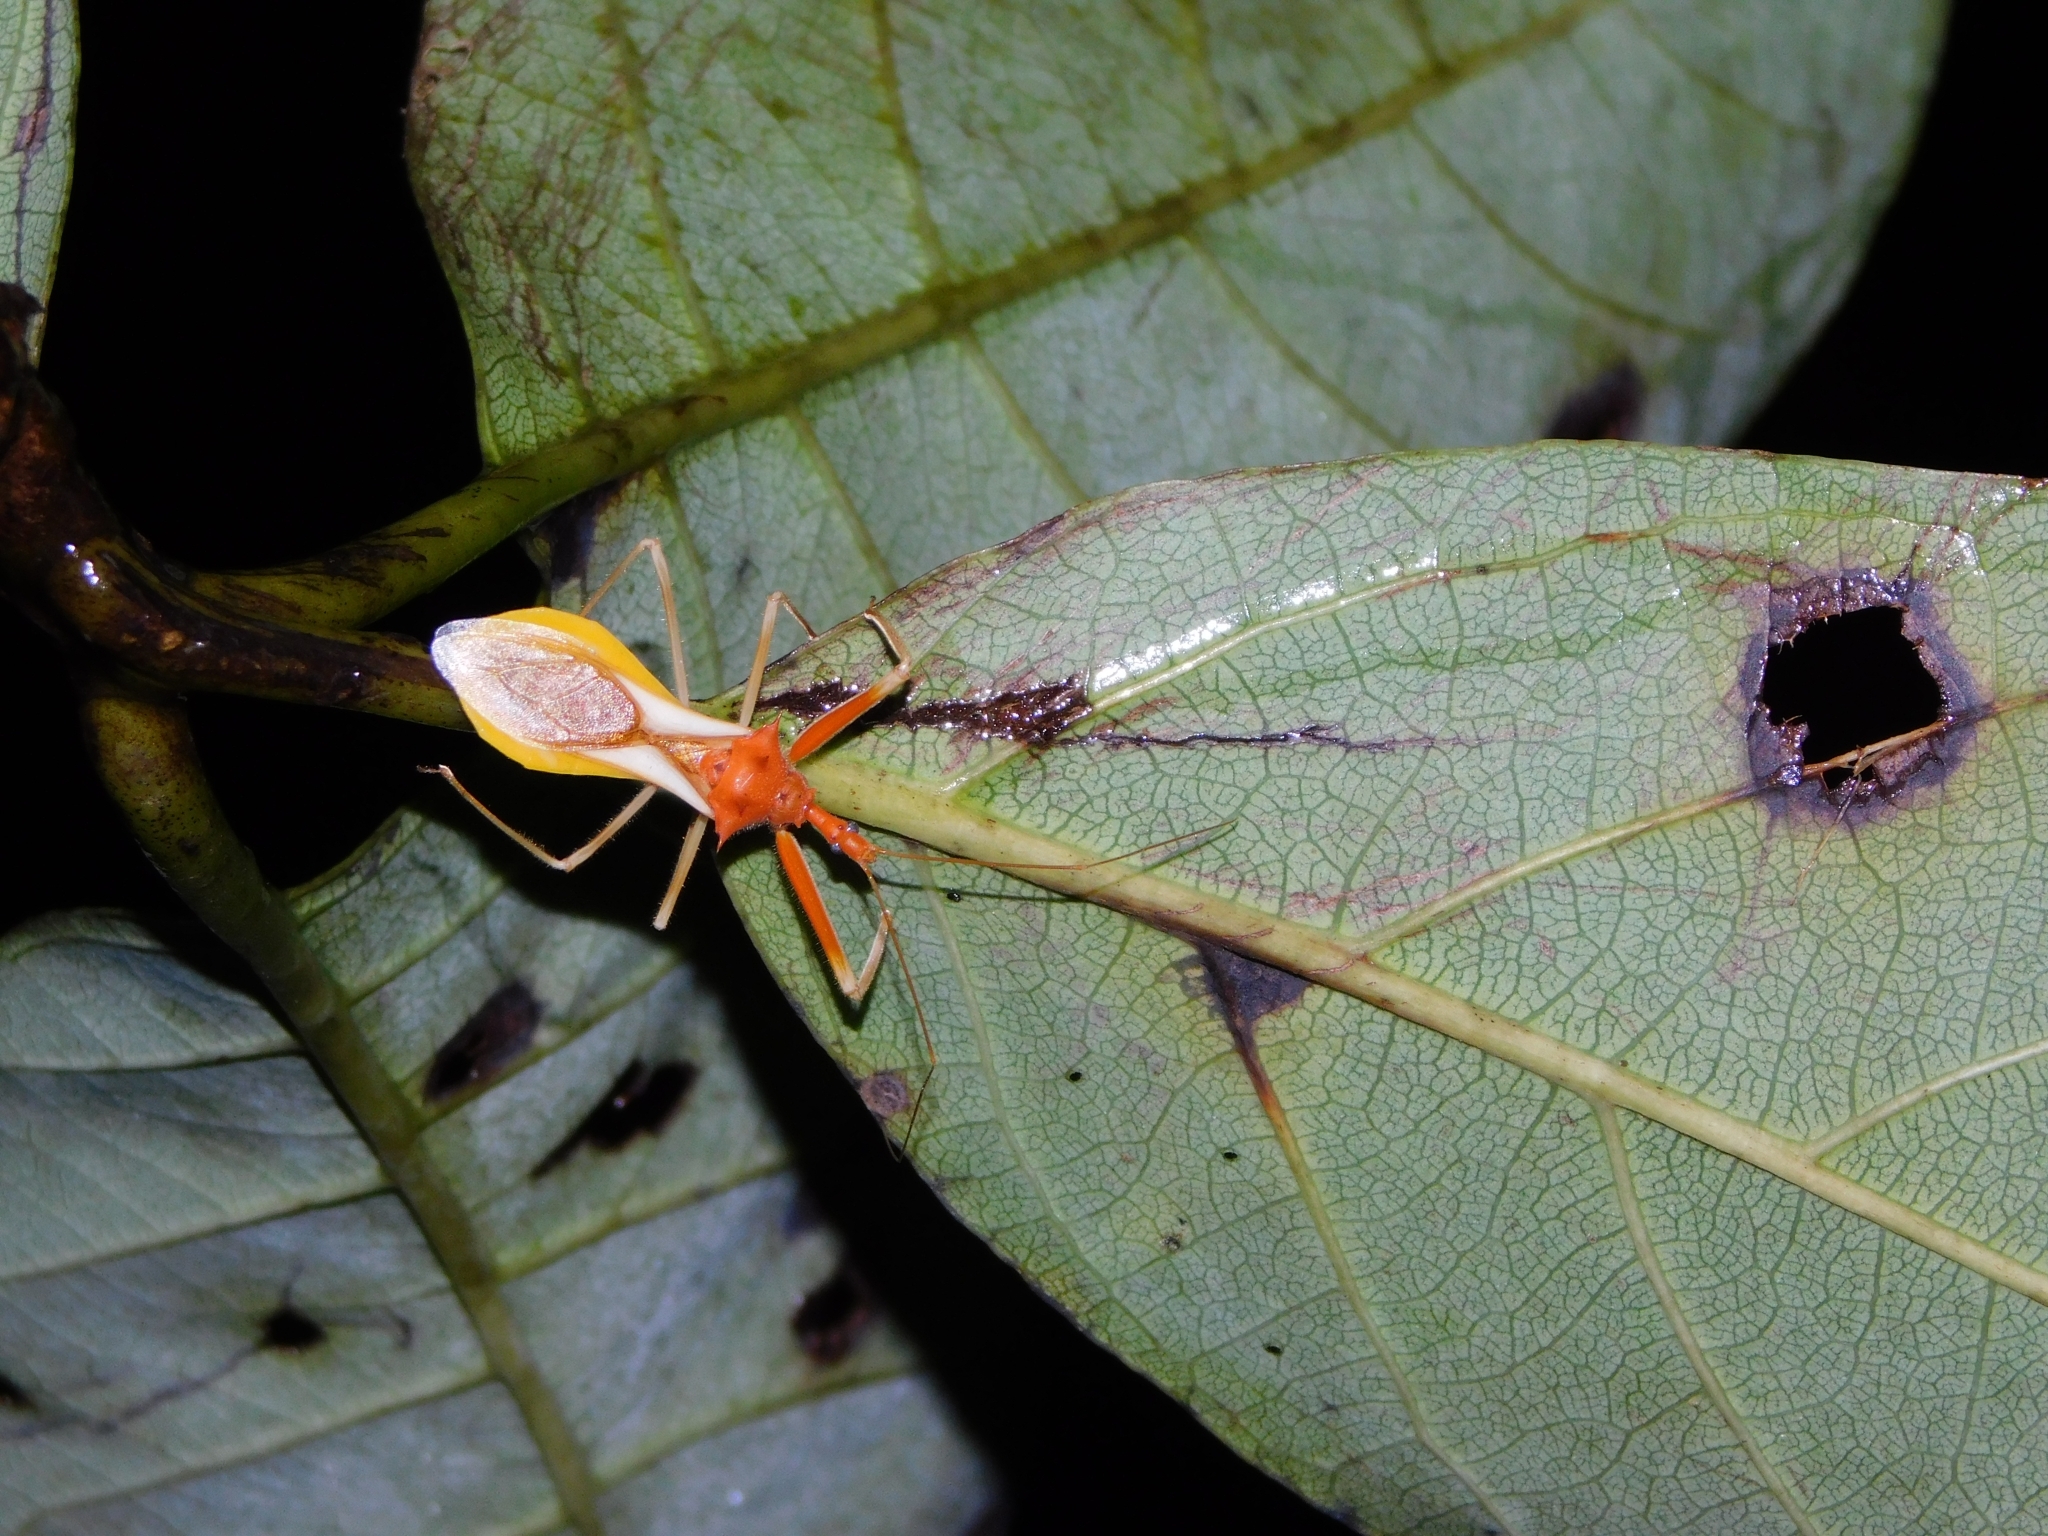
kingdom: Animalia
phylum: Arthropoda
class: Insecta
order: Hemiptera
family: Reduviidae
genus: Epidaus
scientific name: Epidaus bicolor
